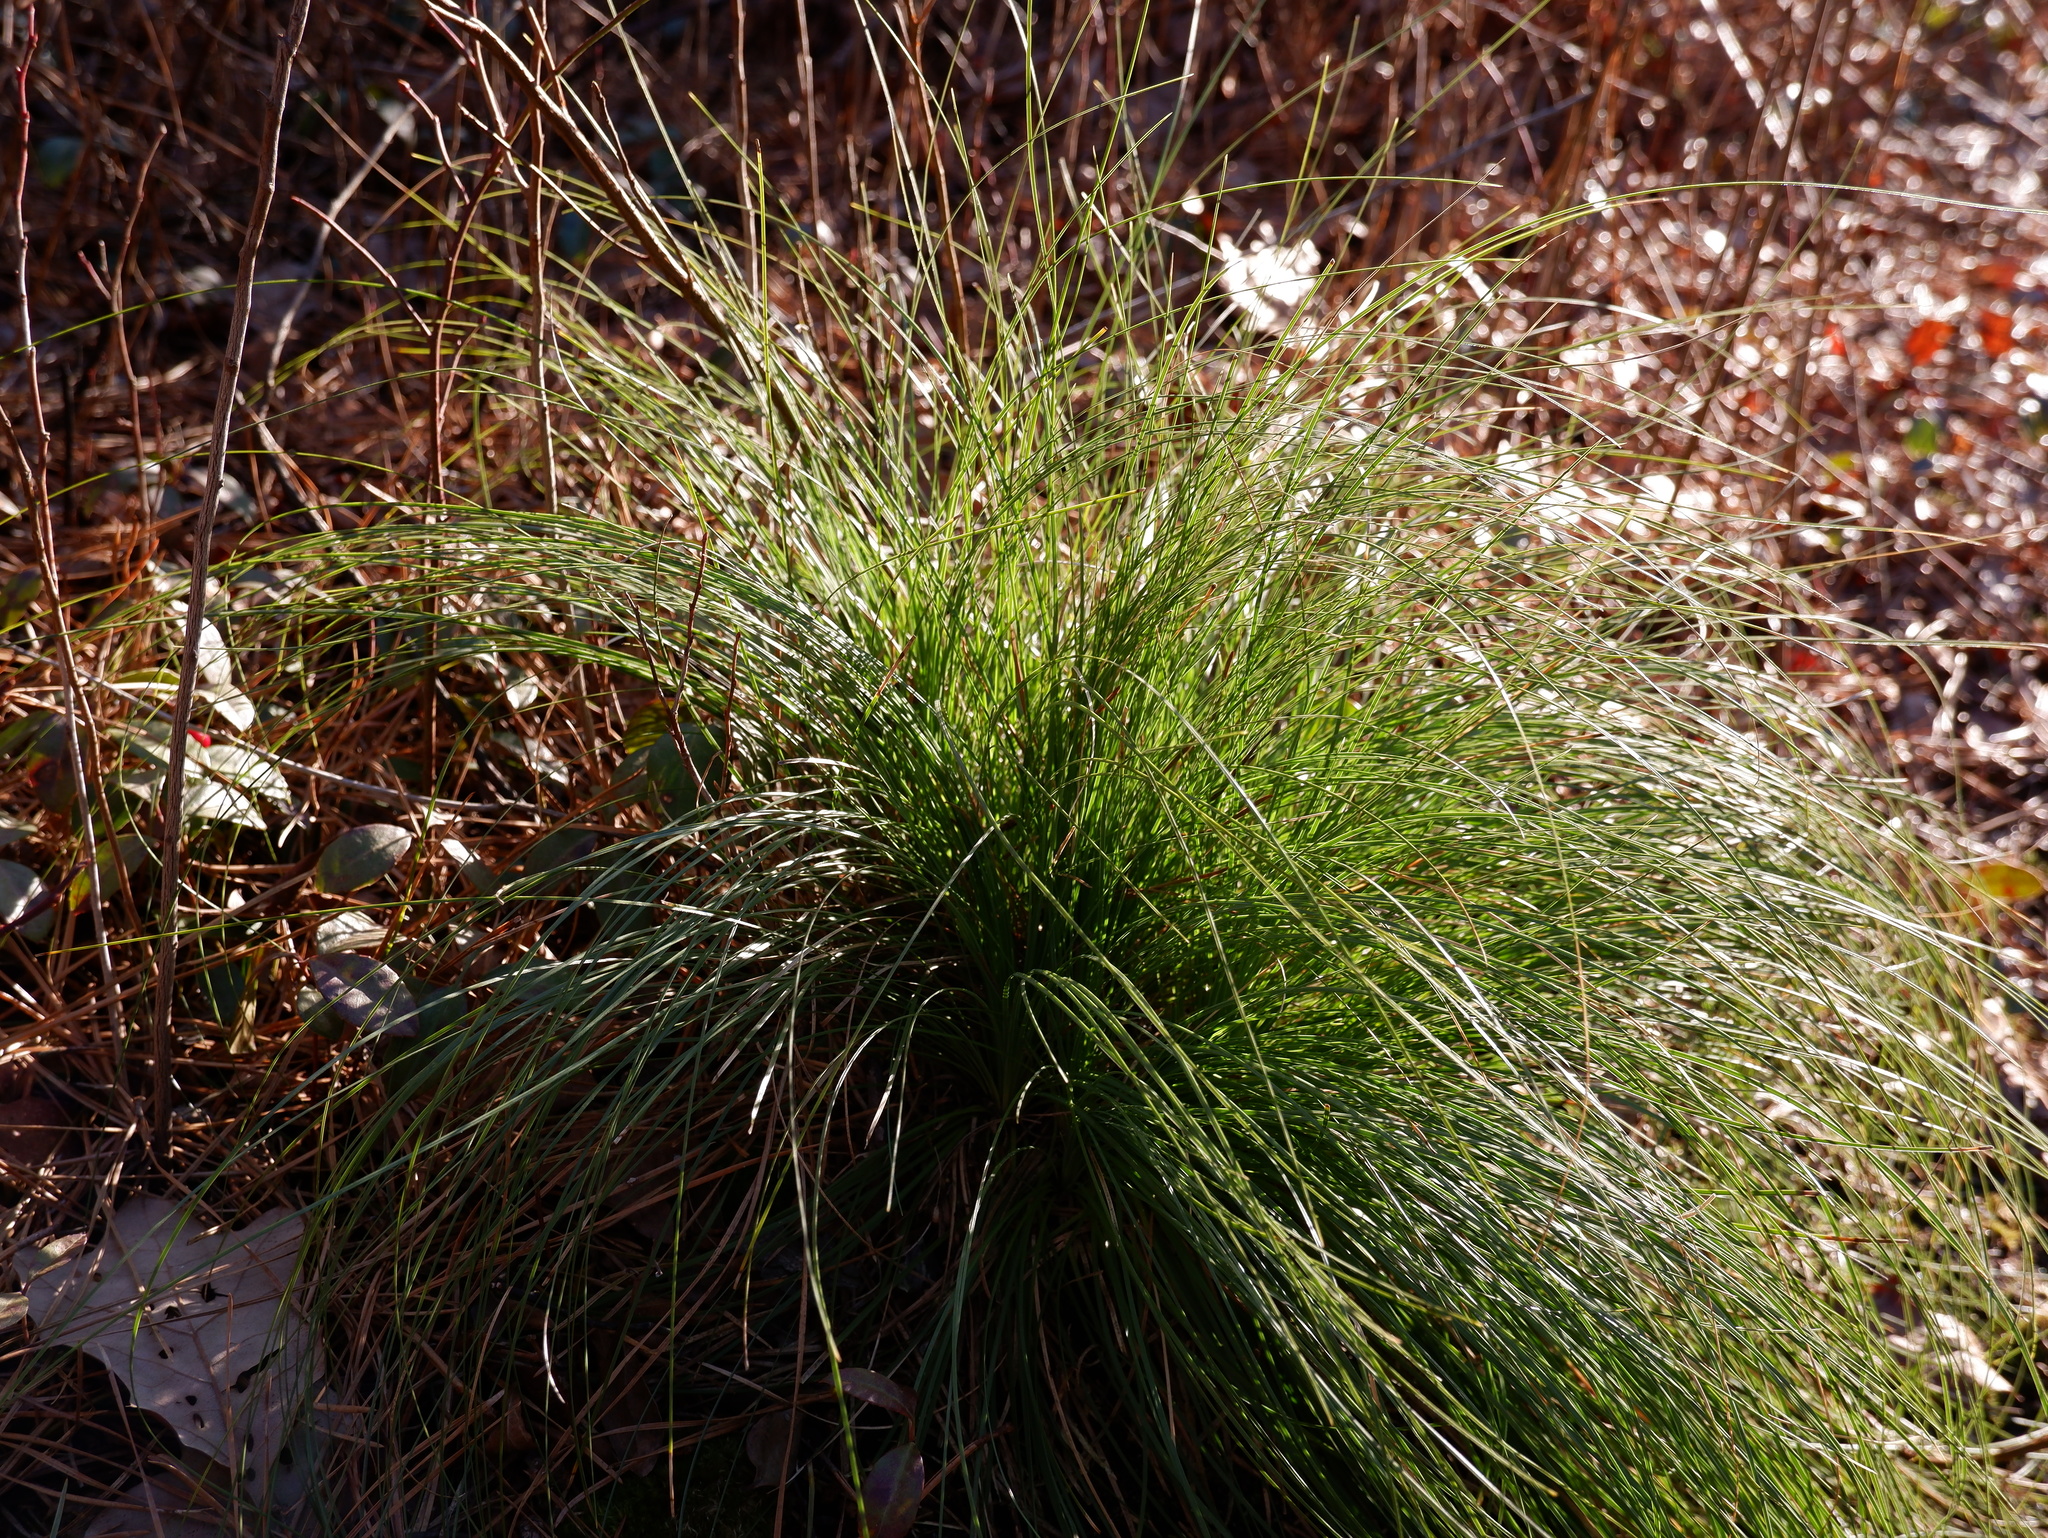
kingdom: Plantae
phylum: Tracheophyta
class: Liliopsida
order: Liliales
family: Melanthiaceae
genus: Xerophyllum
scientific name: Xerophyllum asphodeloides
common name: Mountain-asphodel
